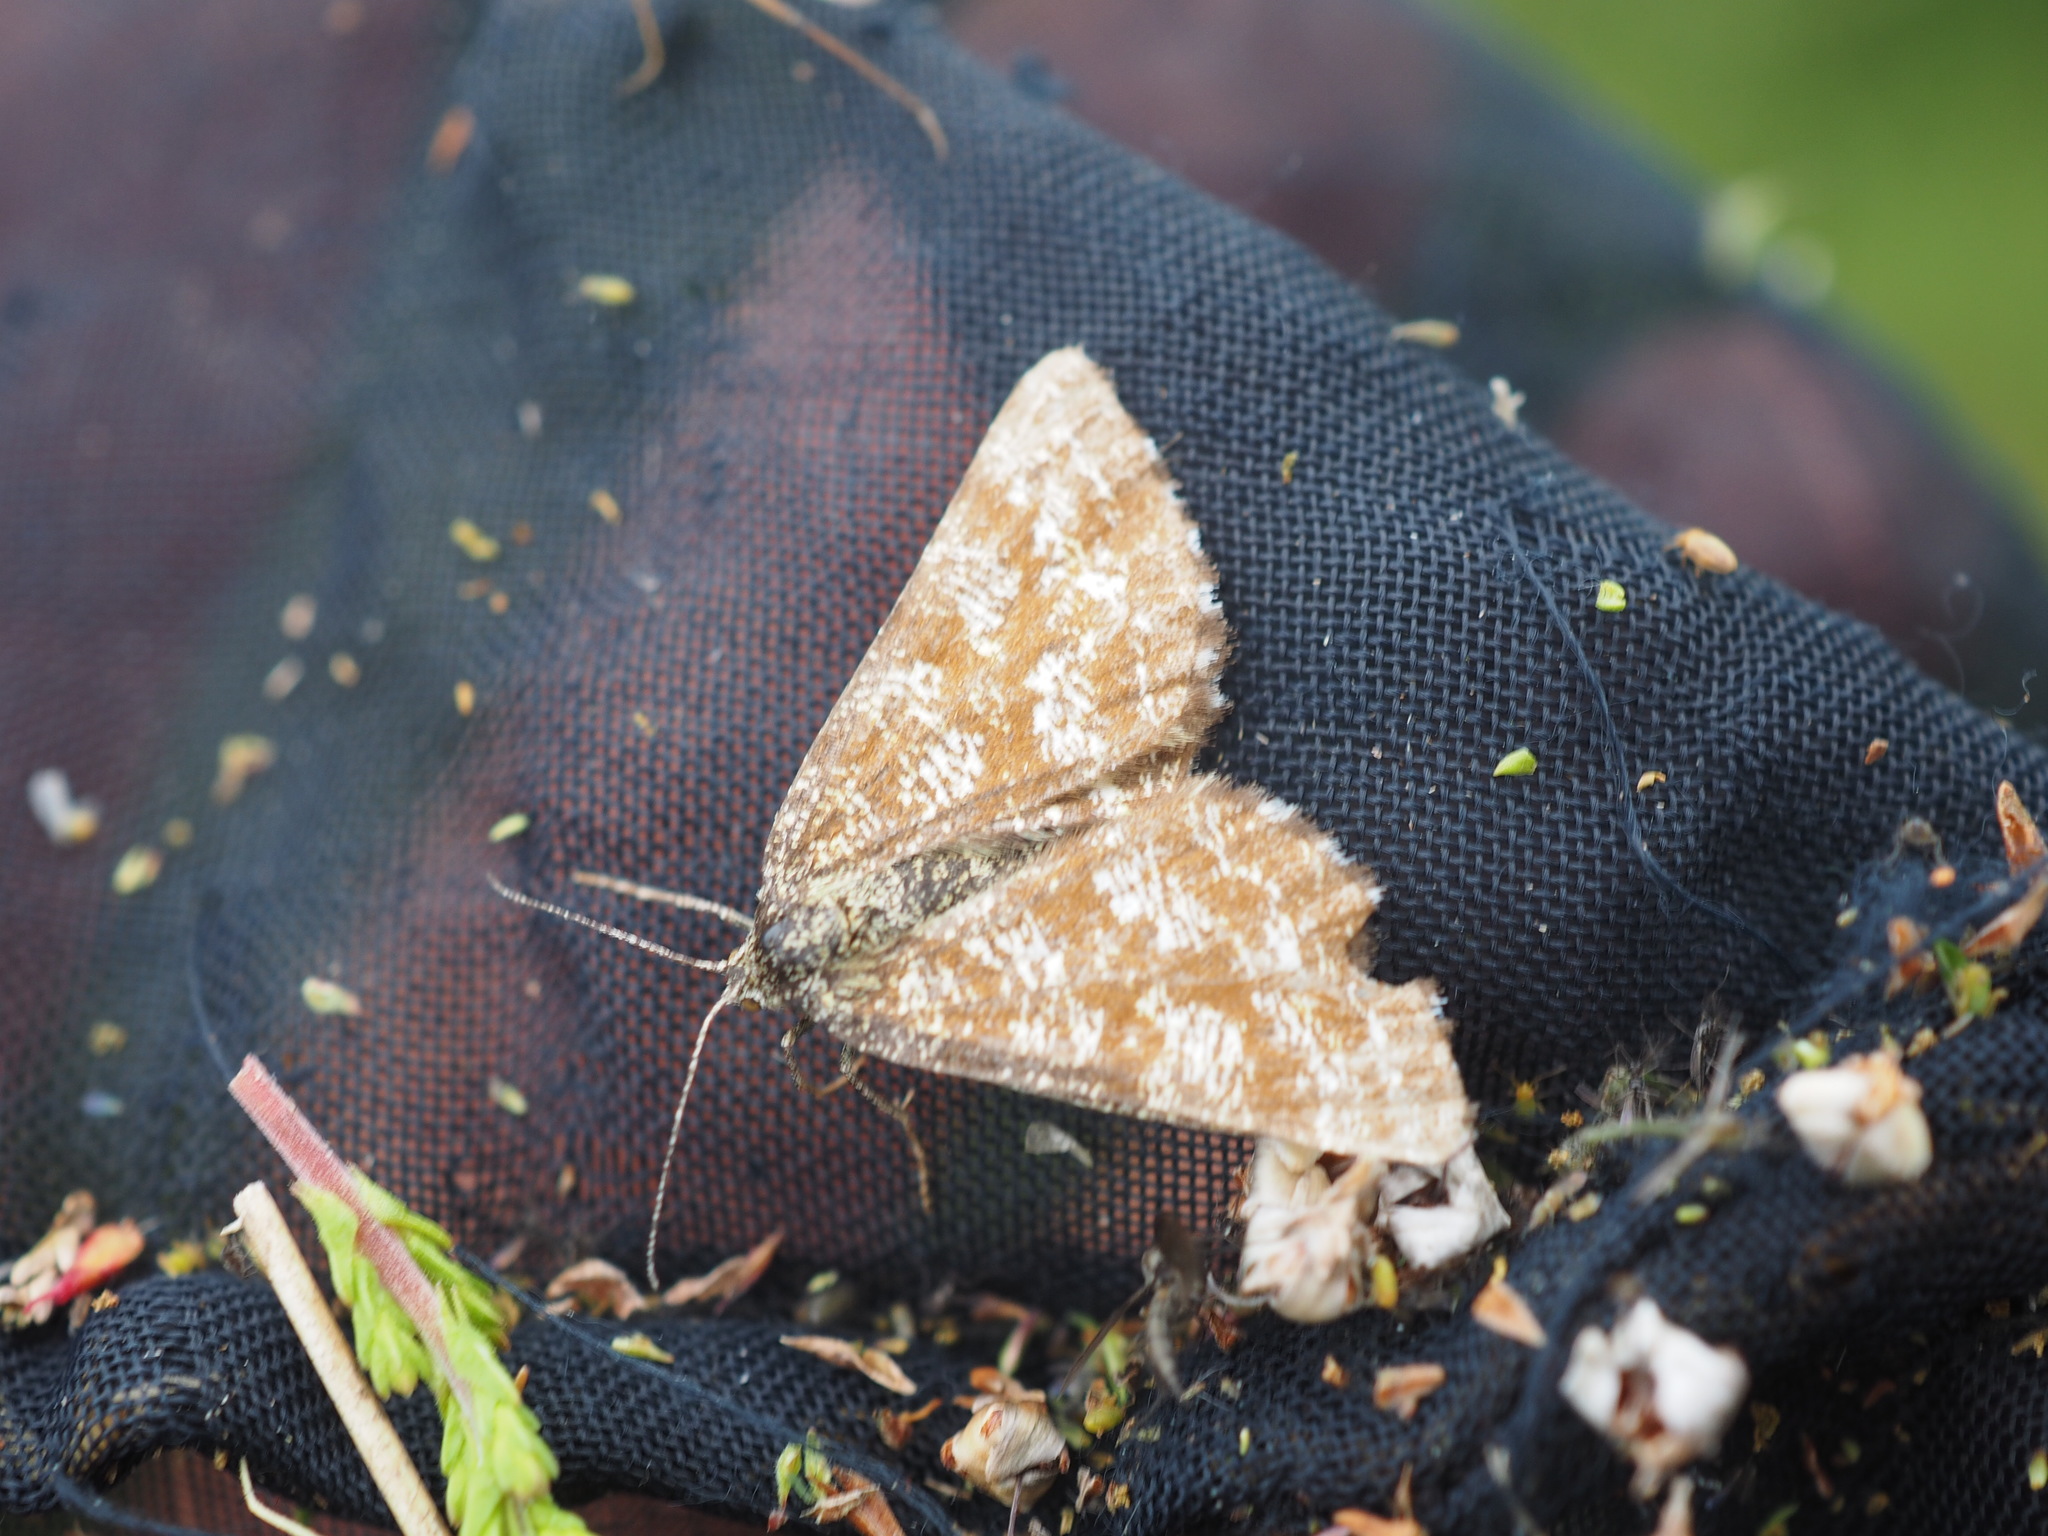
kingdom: Animalia
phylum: Arthropoda
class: Insecta
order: Lepidoptera
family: Geometridae
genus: Ematurga
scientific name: Ematurga atomaria
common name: Common heath
